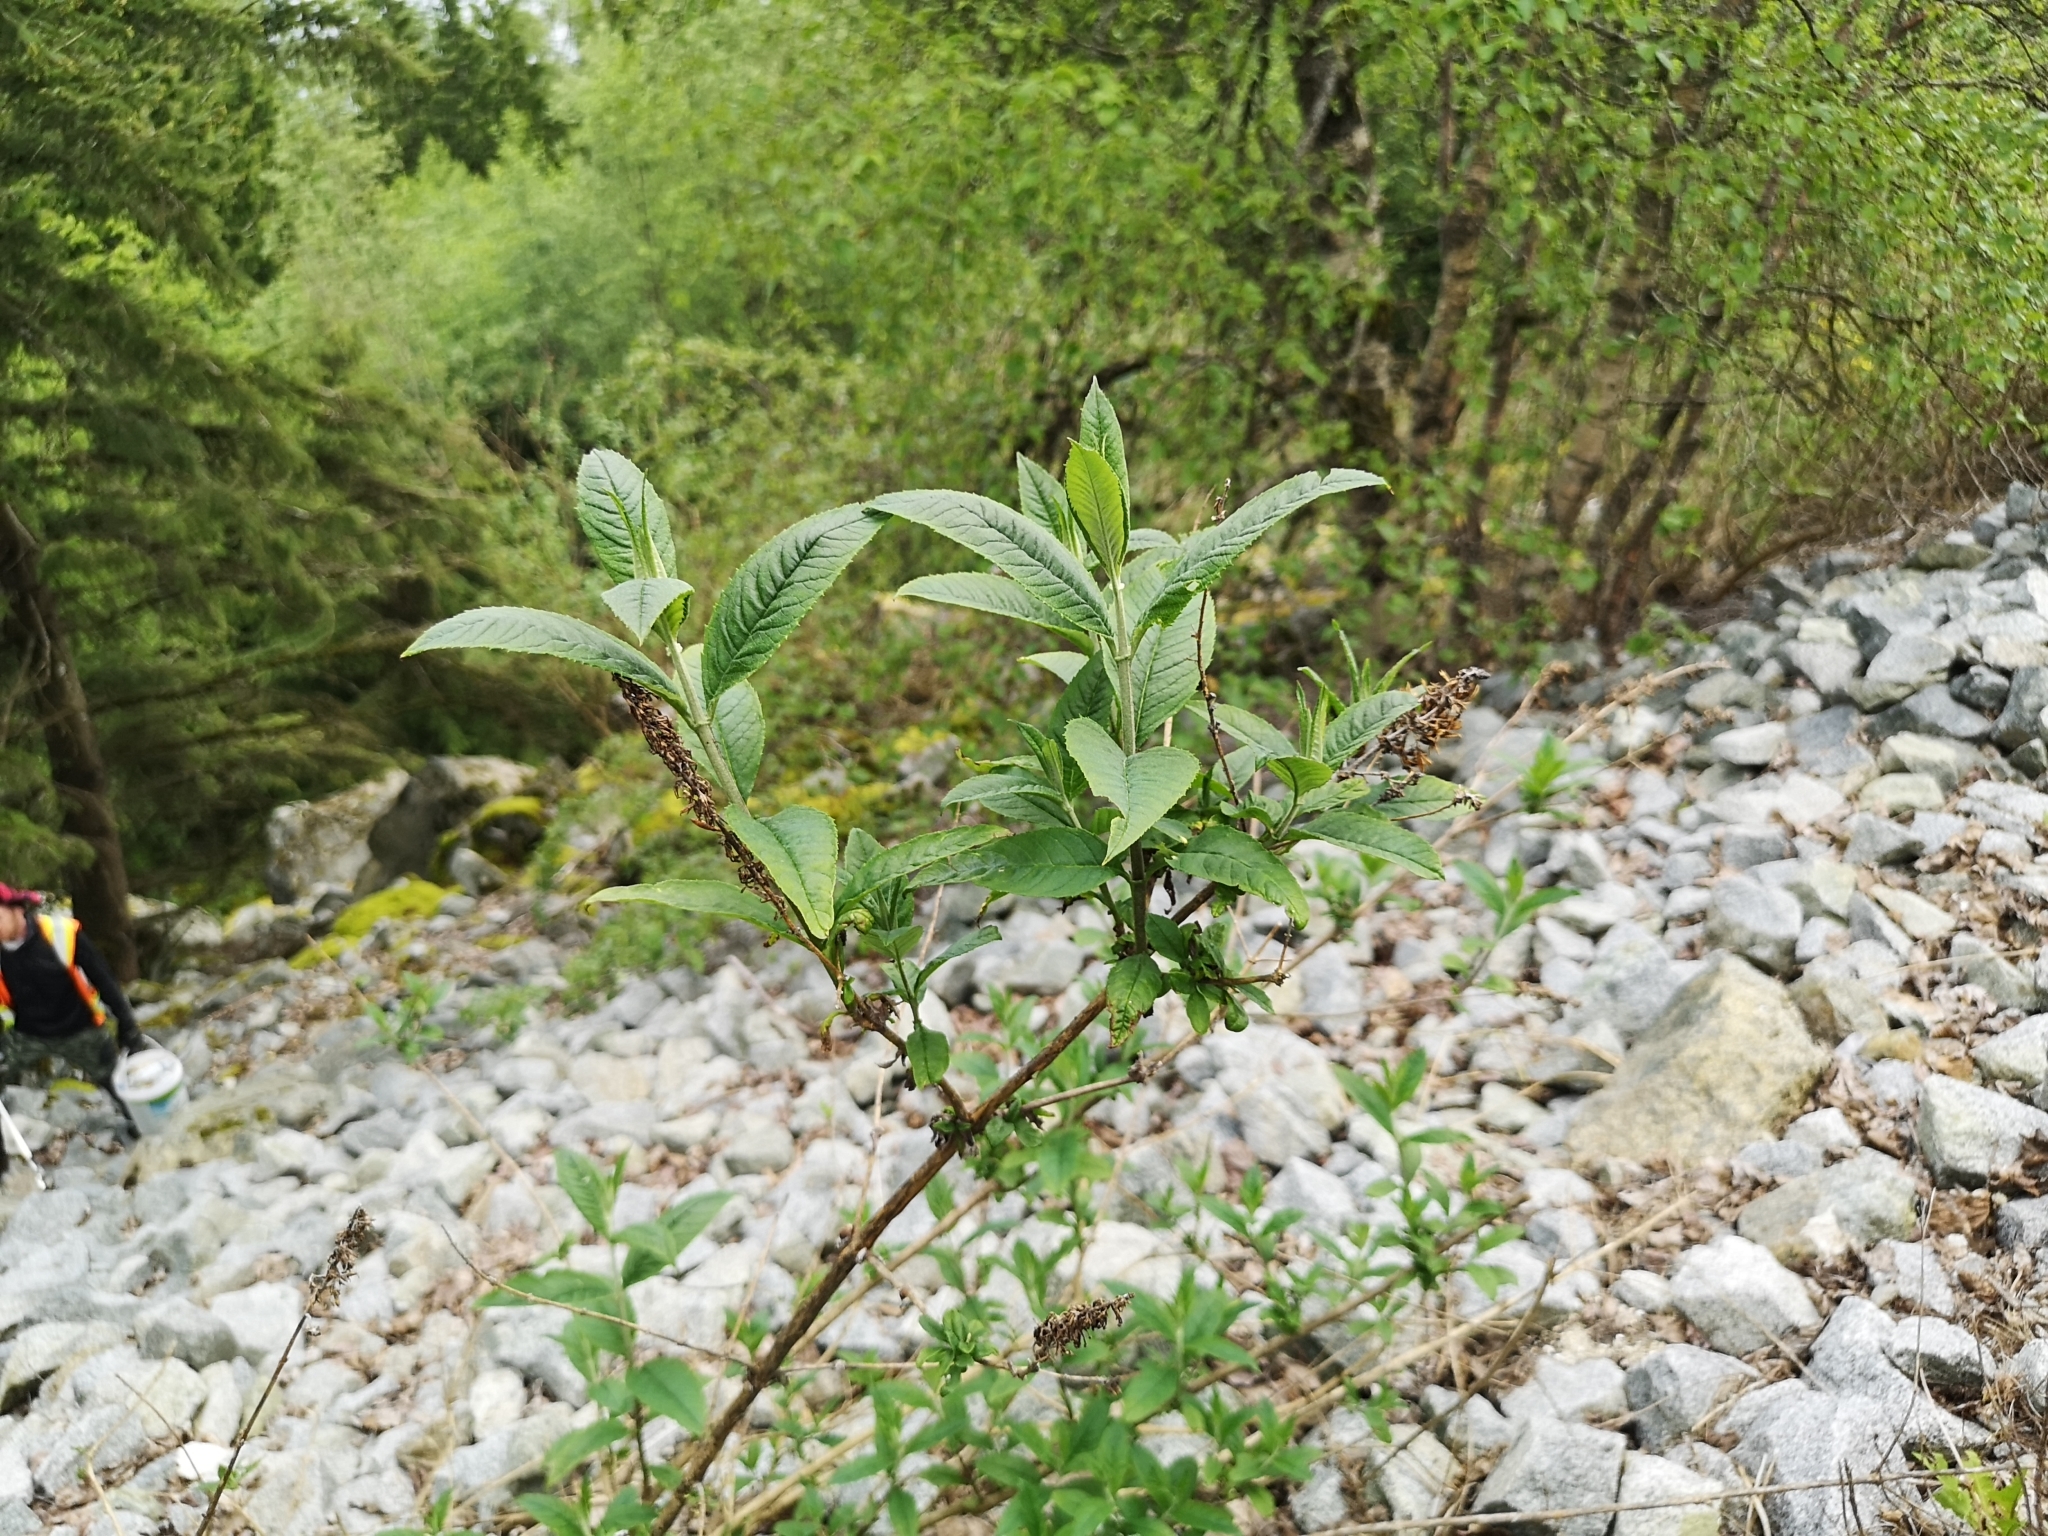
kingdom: Plantae
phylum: Tracheophyta
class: Magnoliopsida
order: Lamiales
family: Scrophulariaceae
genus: Buddleja
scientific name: Buddleja davidii
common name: Butterfly-bush
